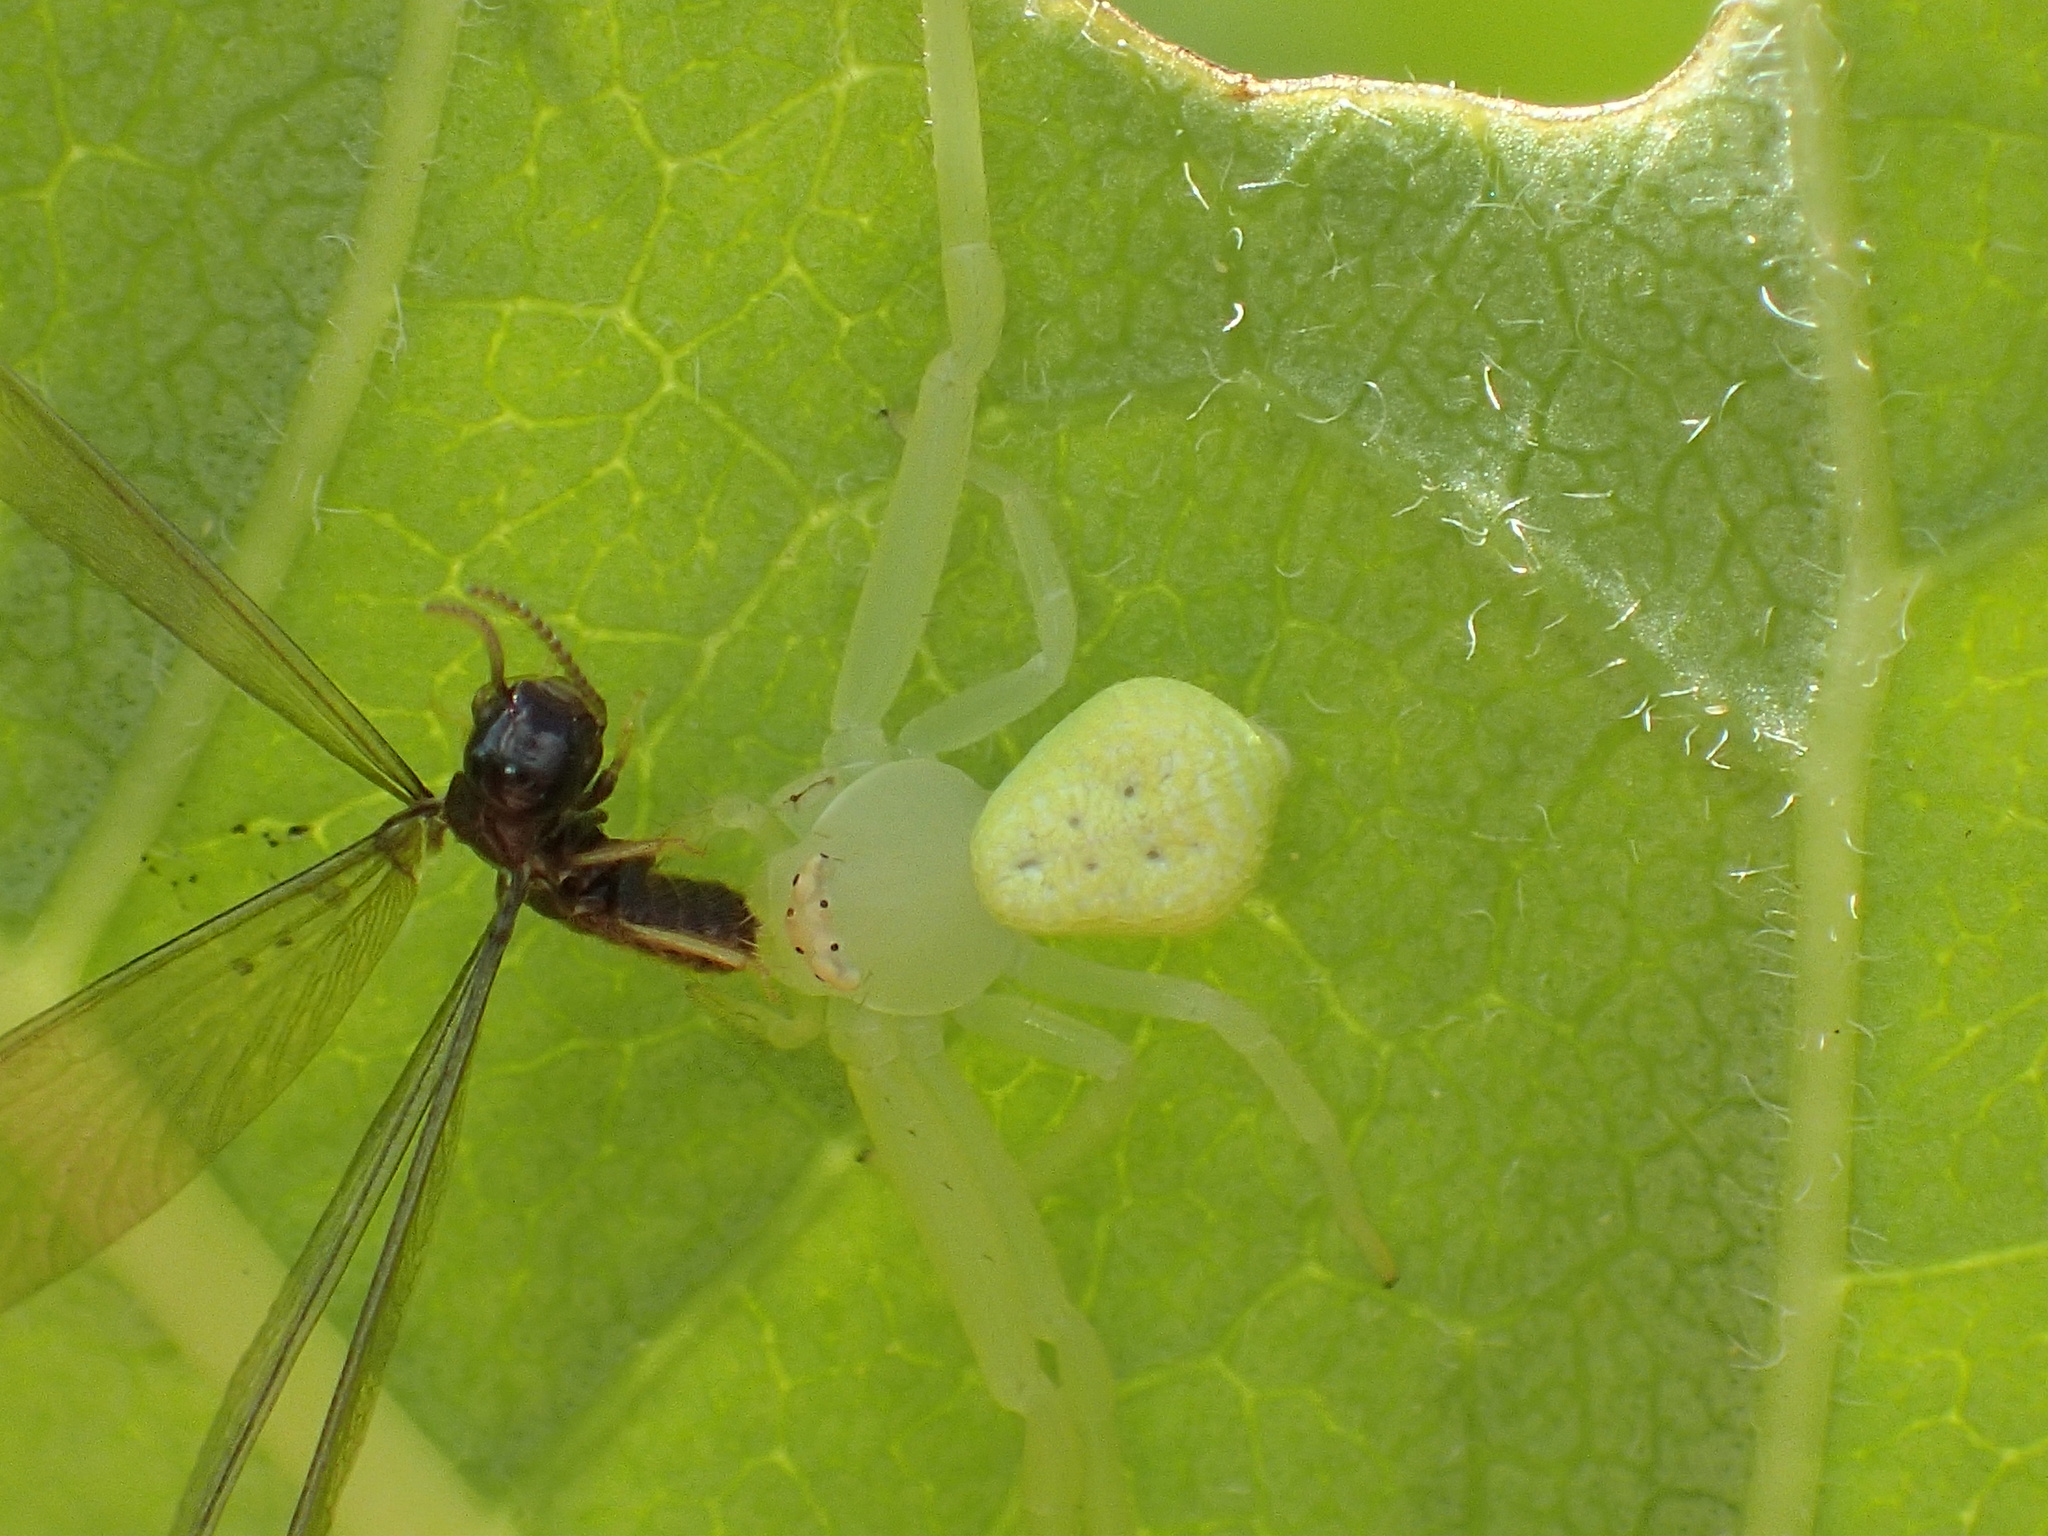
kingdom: Animalia
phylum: Arthropoda
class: Arachnida
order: Araneae
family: Thomisidae
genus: Misumessus
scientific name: Misumessus oblongus
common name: American green crab spider
